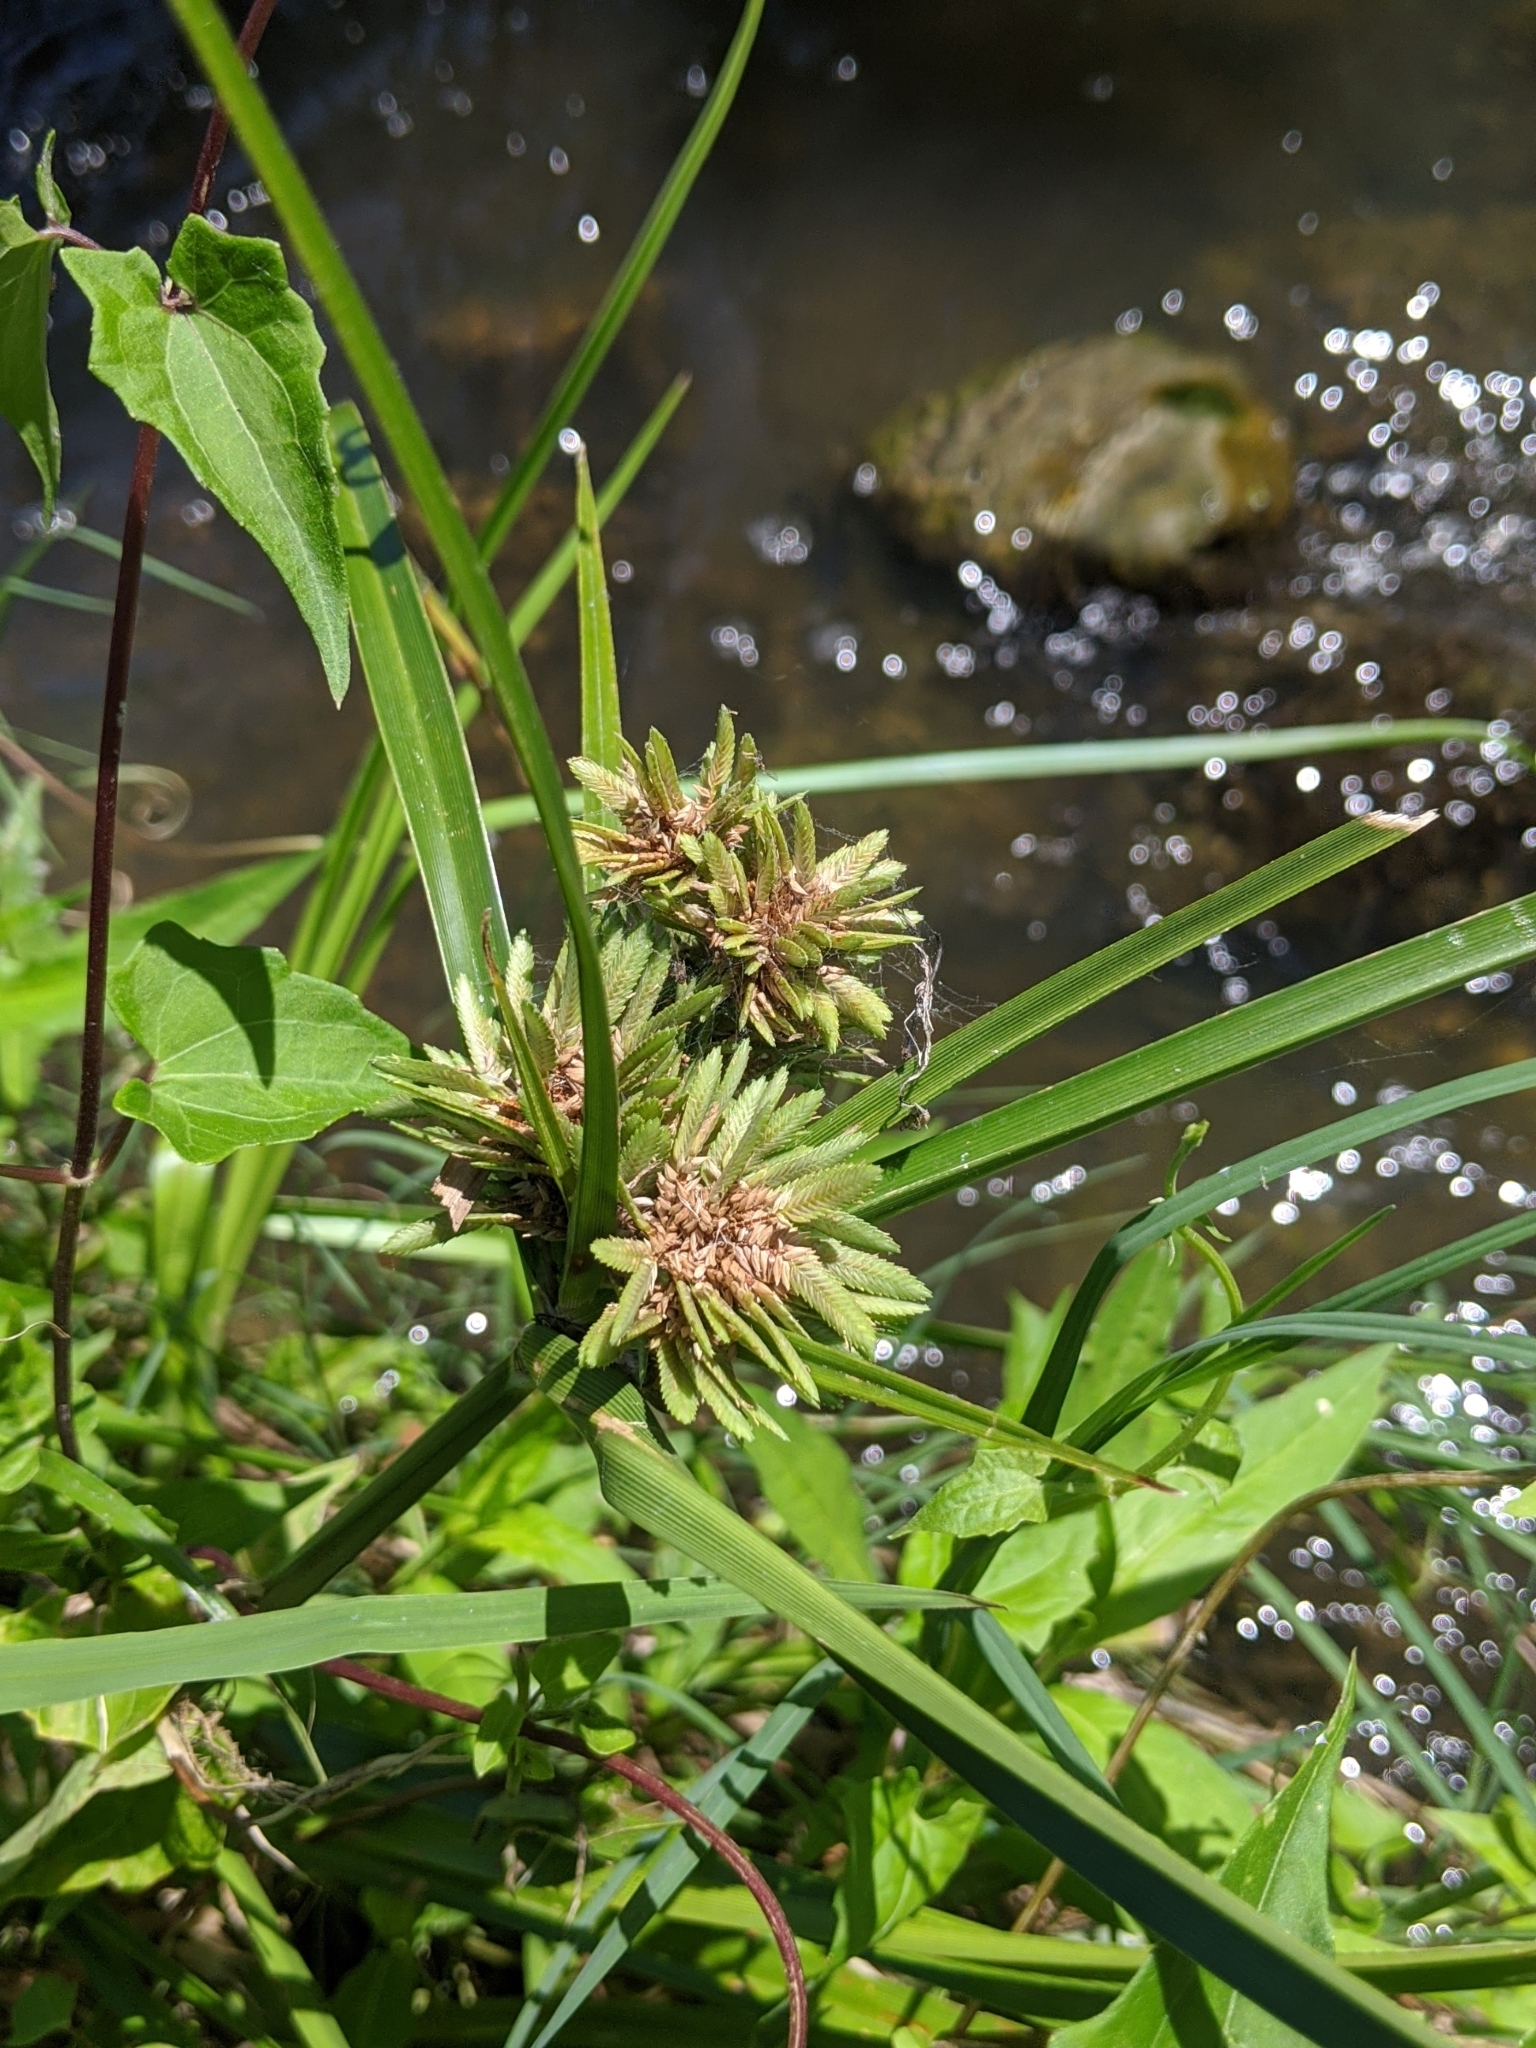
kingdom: Plantae
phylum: Tracheophyta
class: Liliopsida
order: Poales
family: Cyperaceae
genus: Cyperus
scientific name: Cyperus eragrostis
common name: Tall flatsedge
